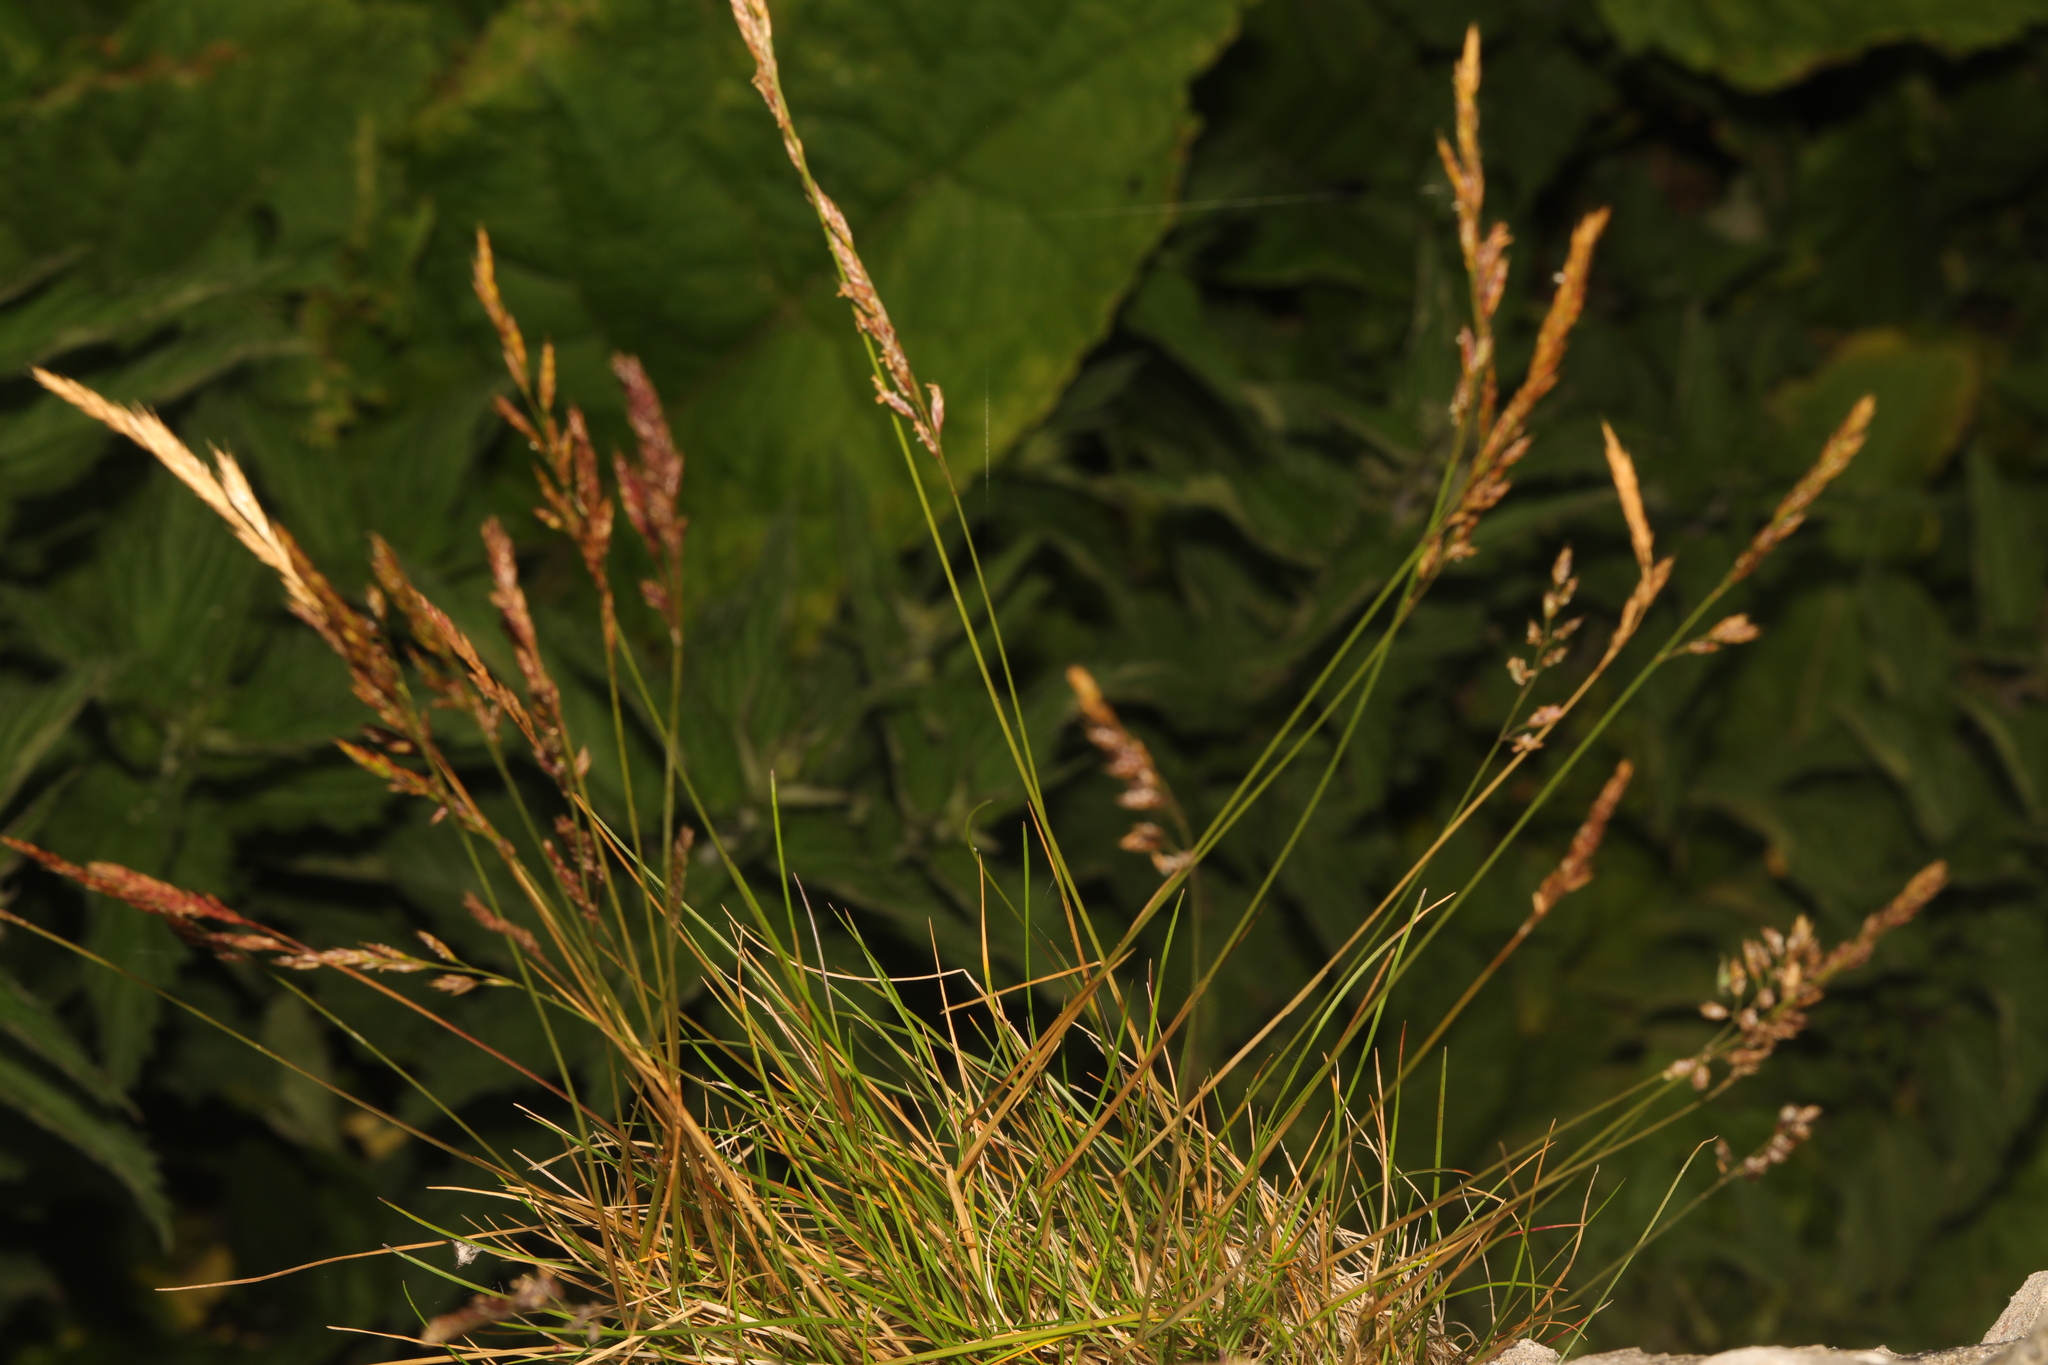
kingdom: Plantae
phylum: Tracheophyta
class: Liliopsida
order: Poales
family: Poaceae
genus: Molinia
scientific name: Molinia caerulea
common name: Purple moor-grass
